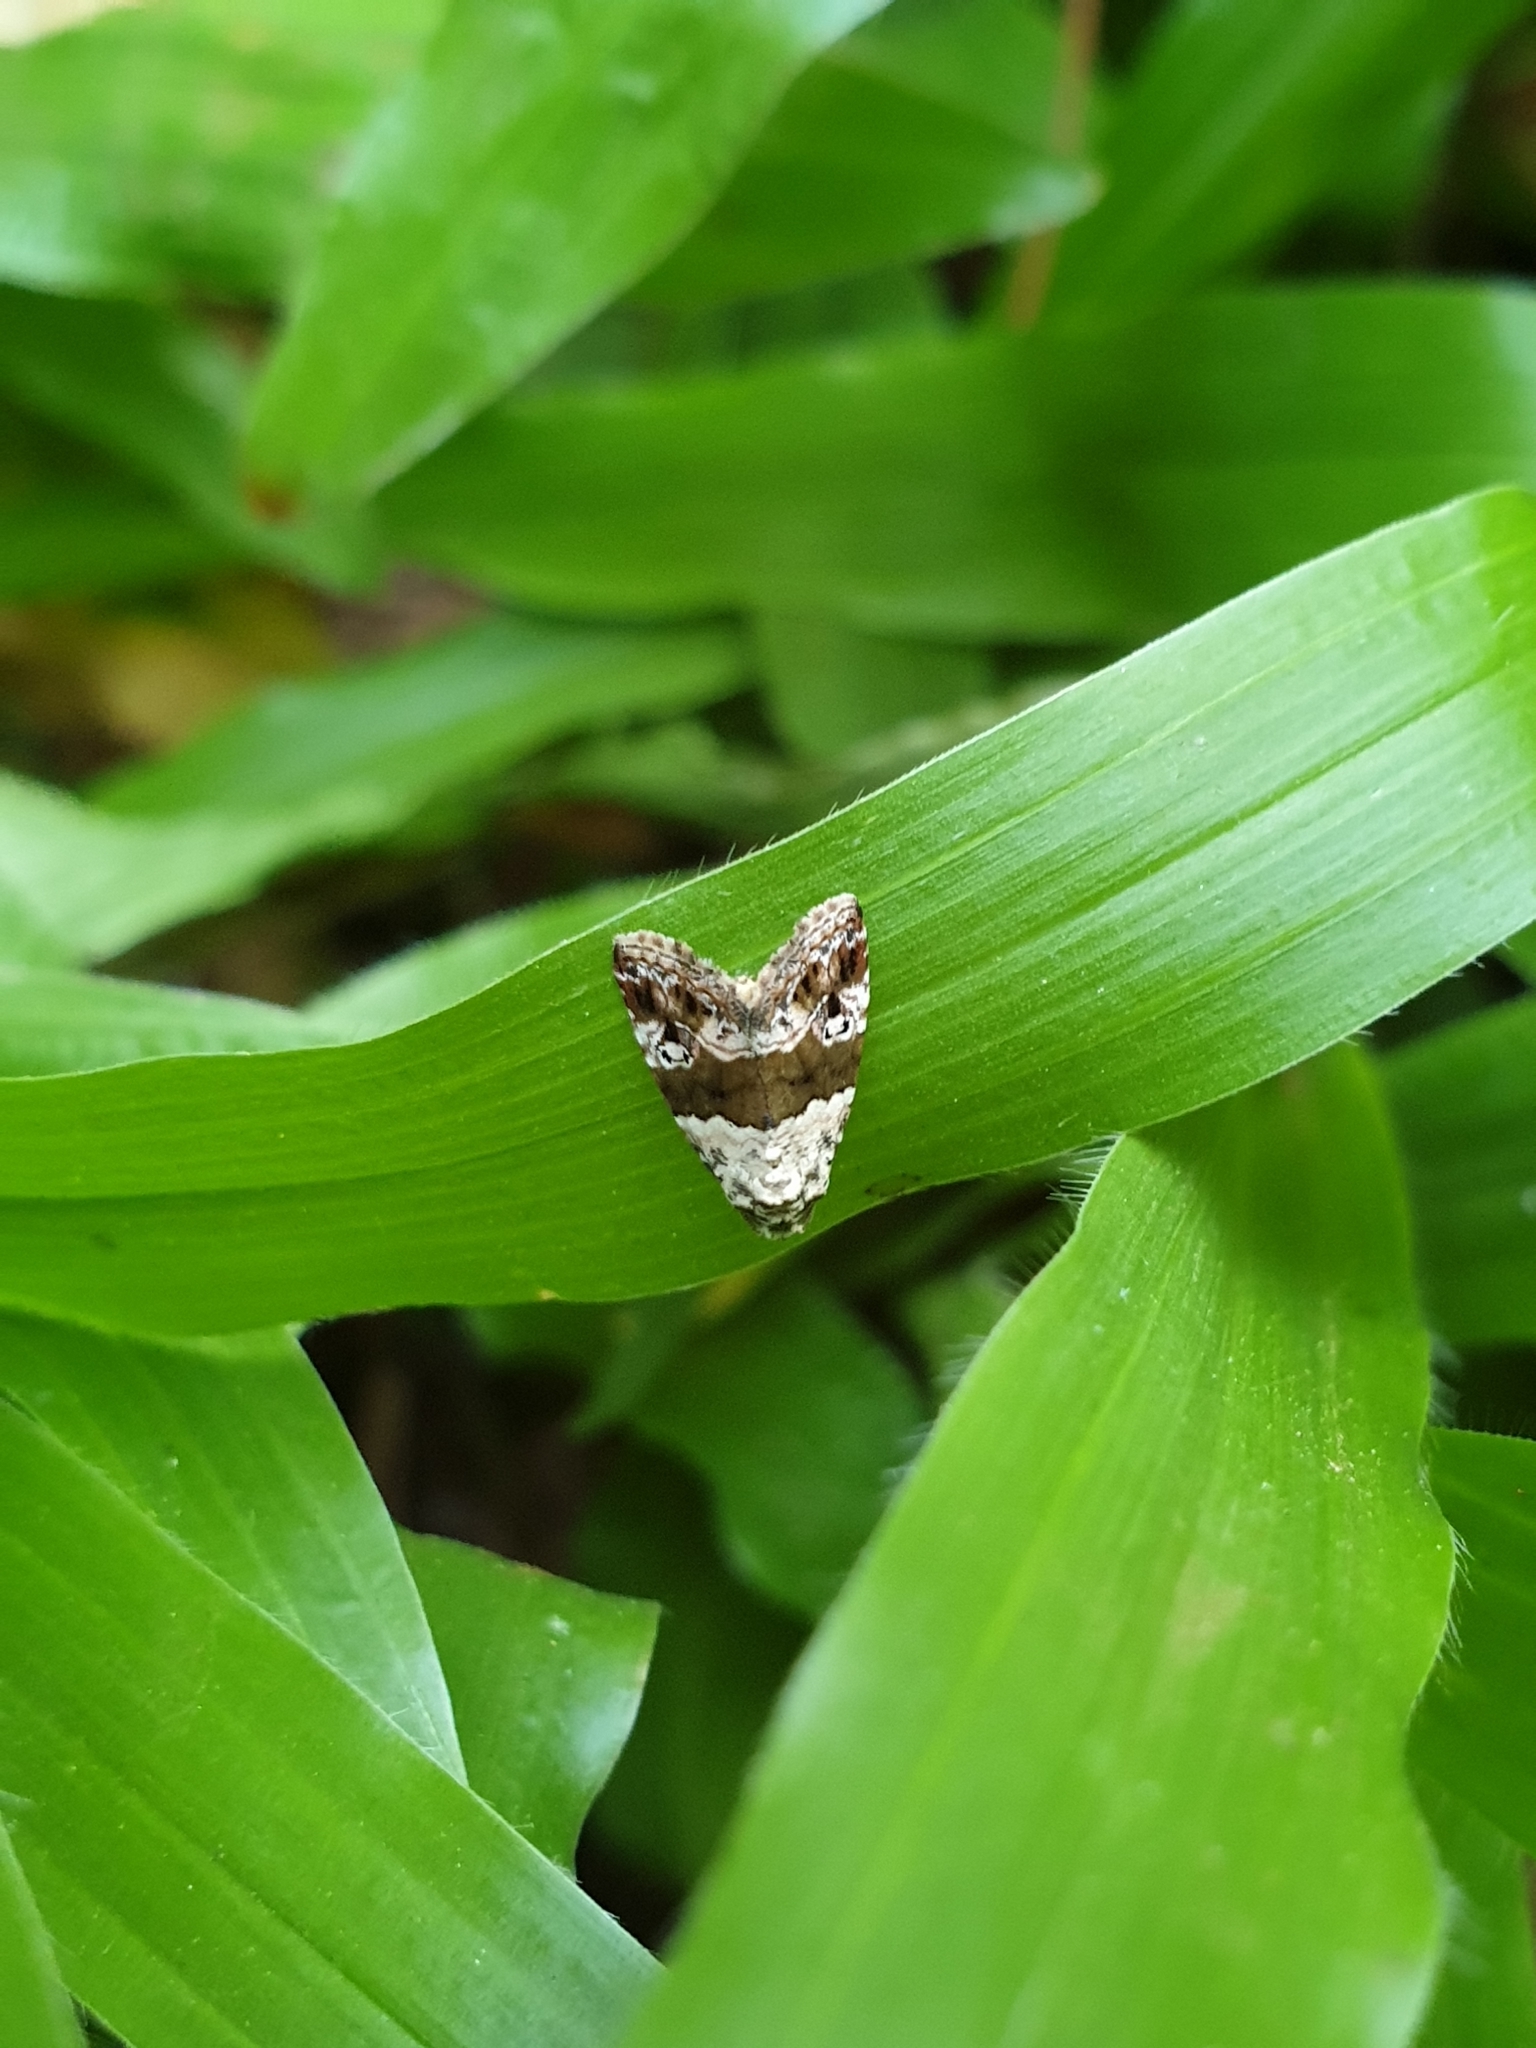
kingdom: Animalia
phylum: Arthropoda
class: Insecta
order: Lepidoptera
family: Noctuidae
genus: Maliattha
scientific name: Maliattha signifera
